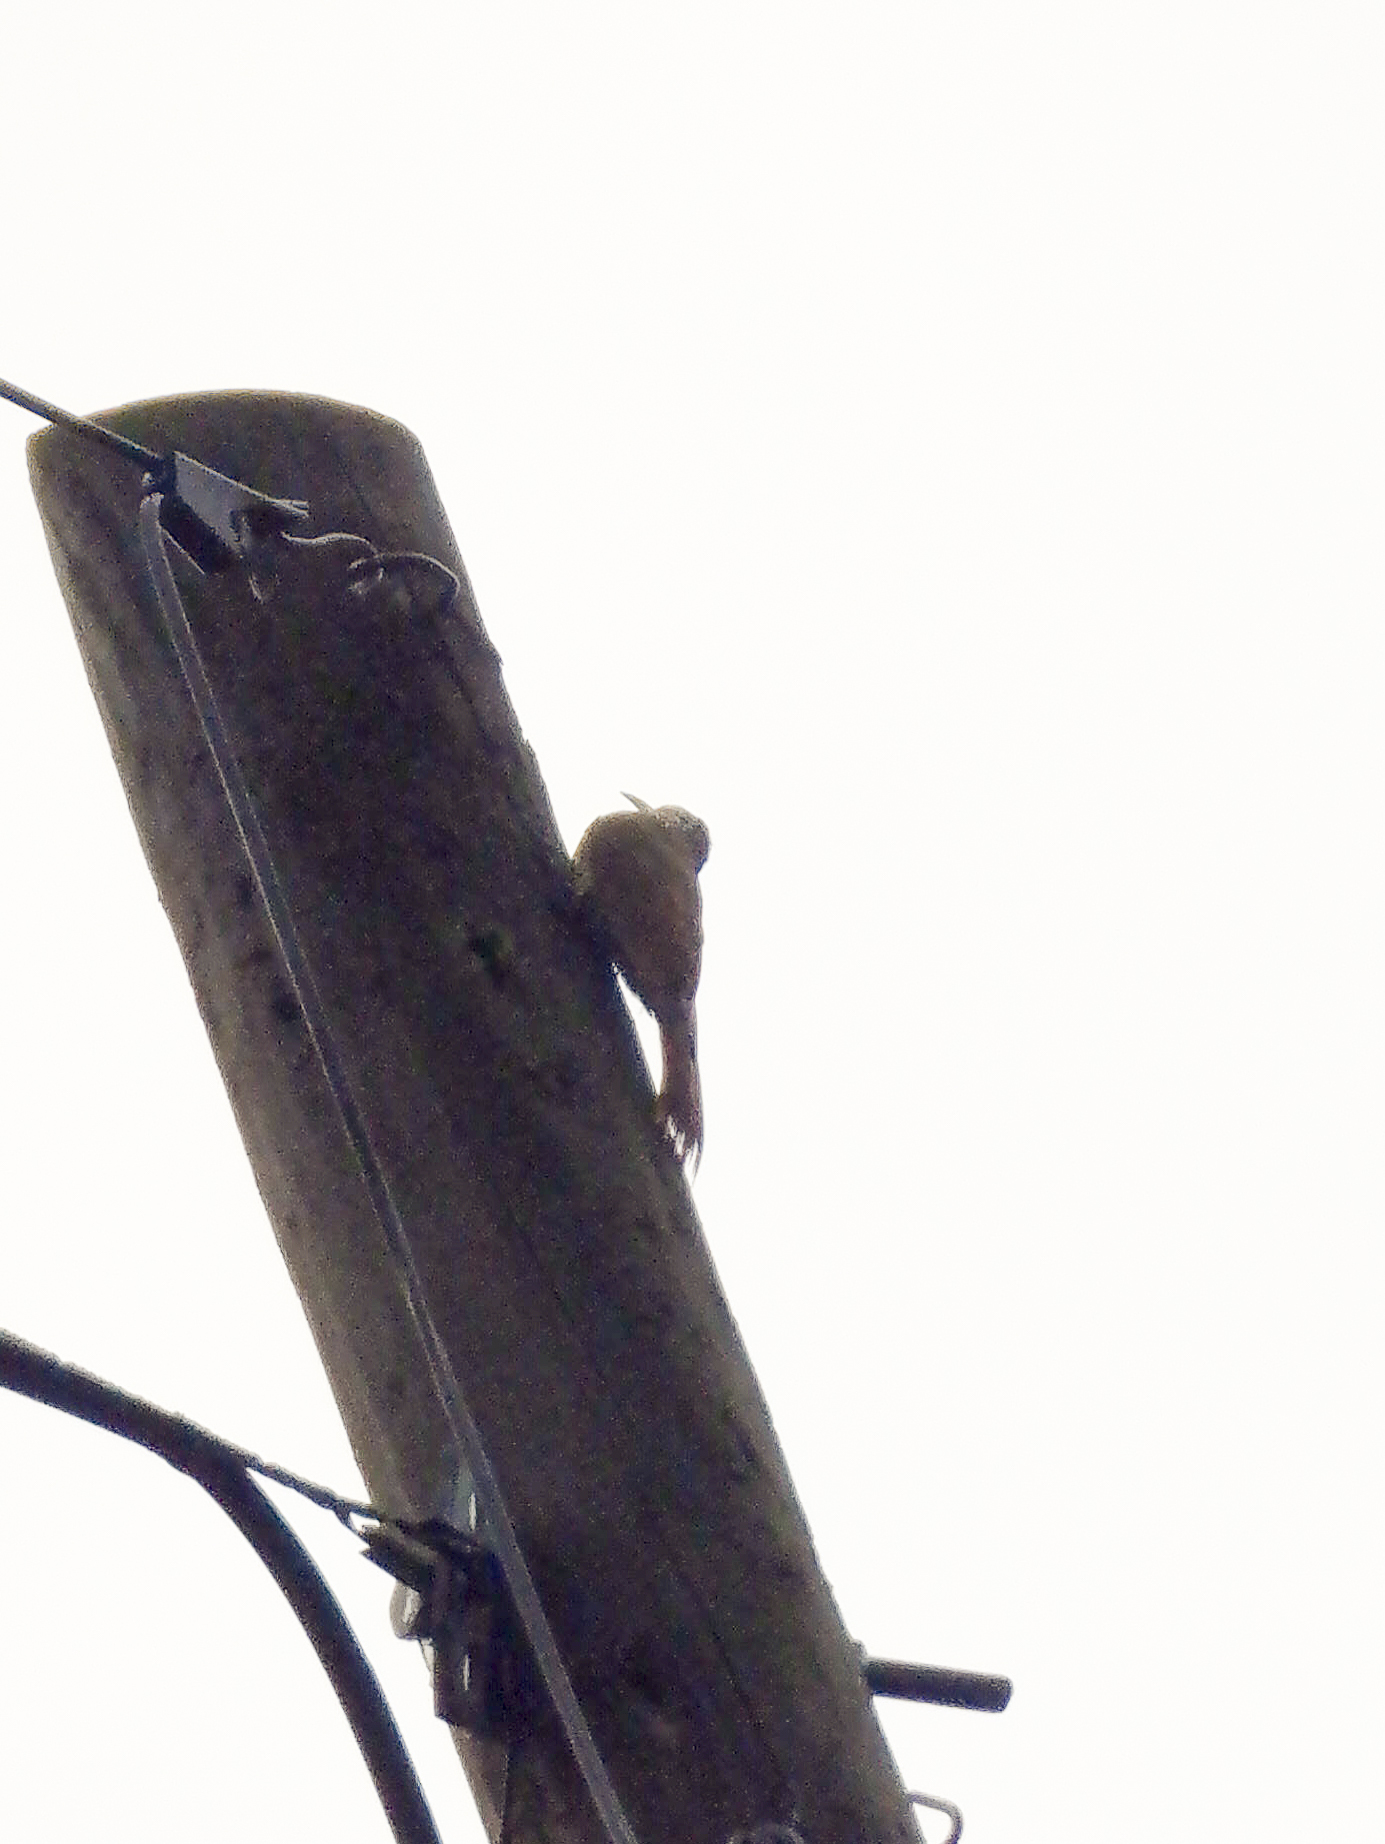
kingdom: Animalia
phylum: Chordata
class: Aves
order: Passeriformes
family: Furnariidae
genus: Lepidocolaptes
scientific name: Lepidocolaptes leucogaster
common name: White-striped woodcreeper
